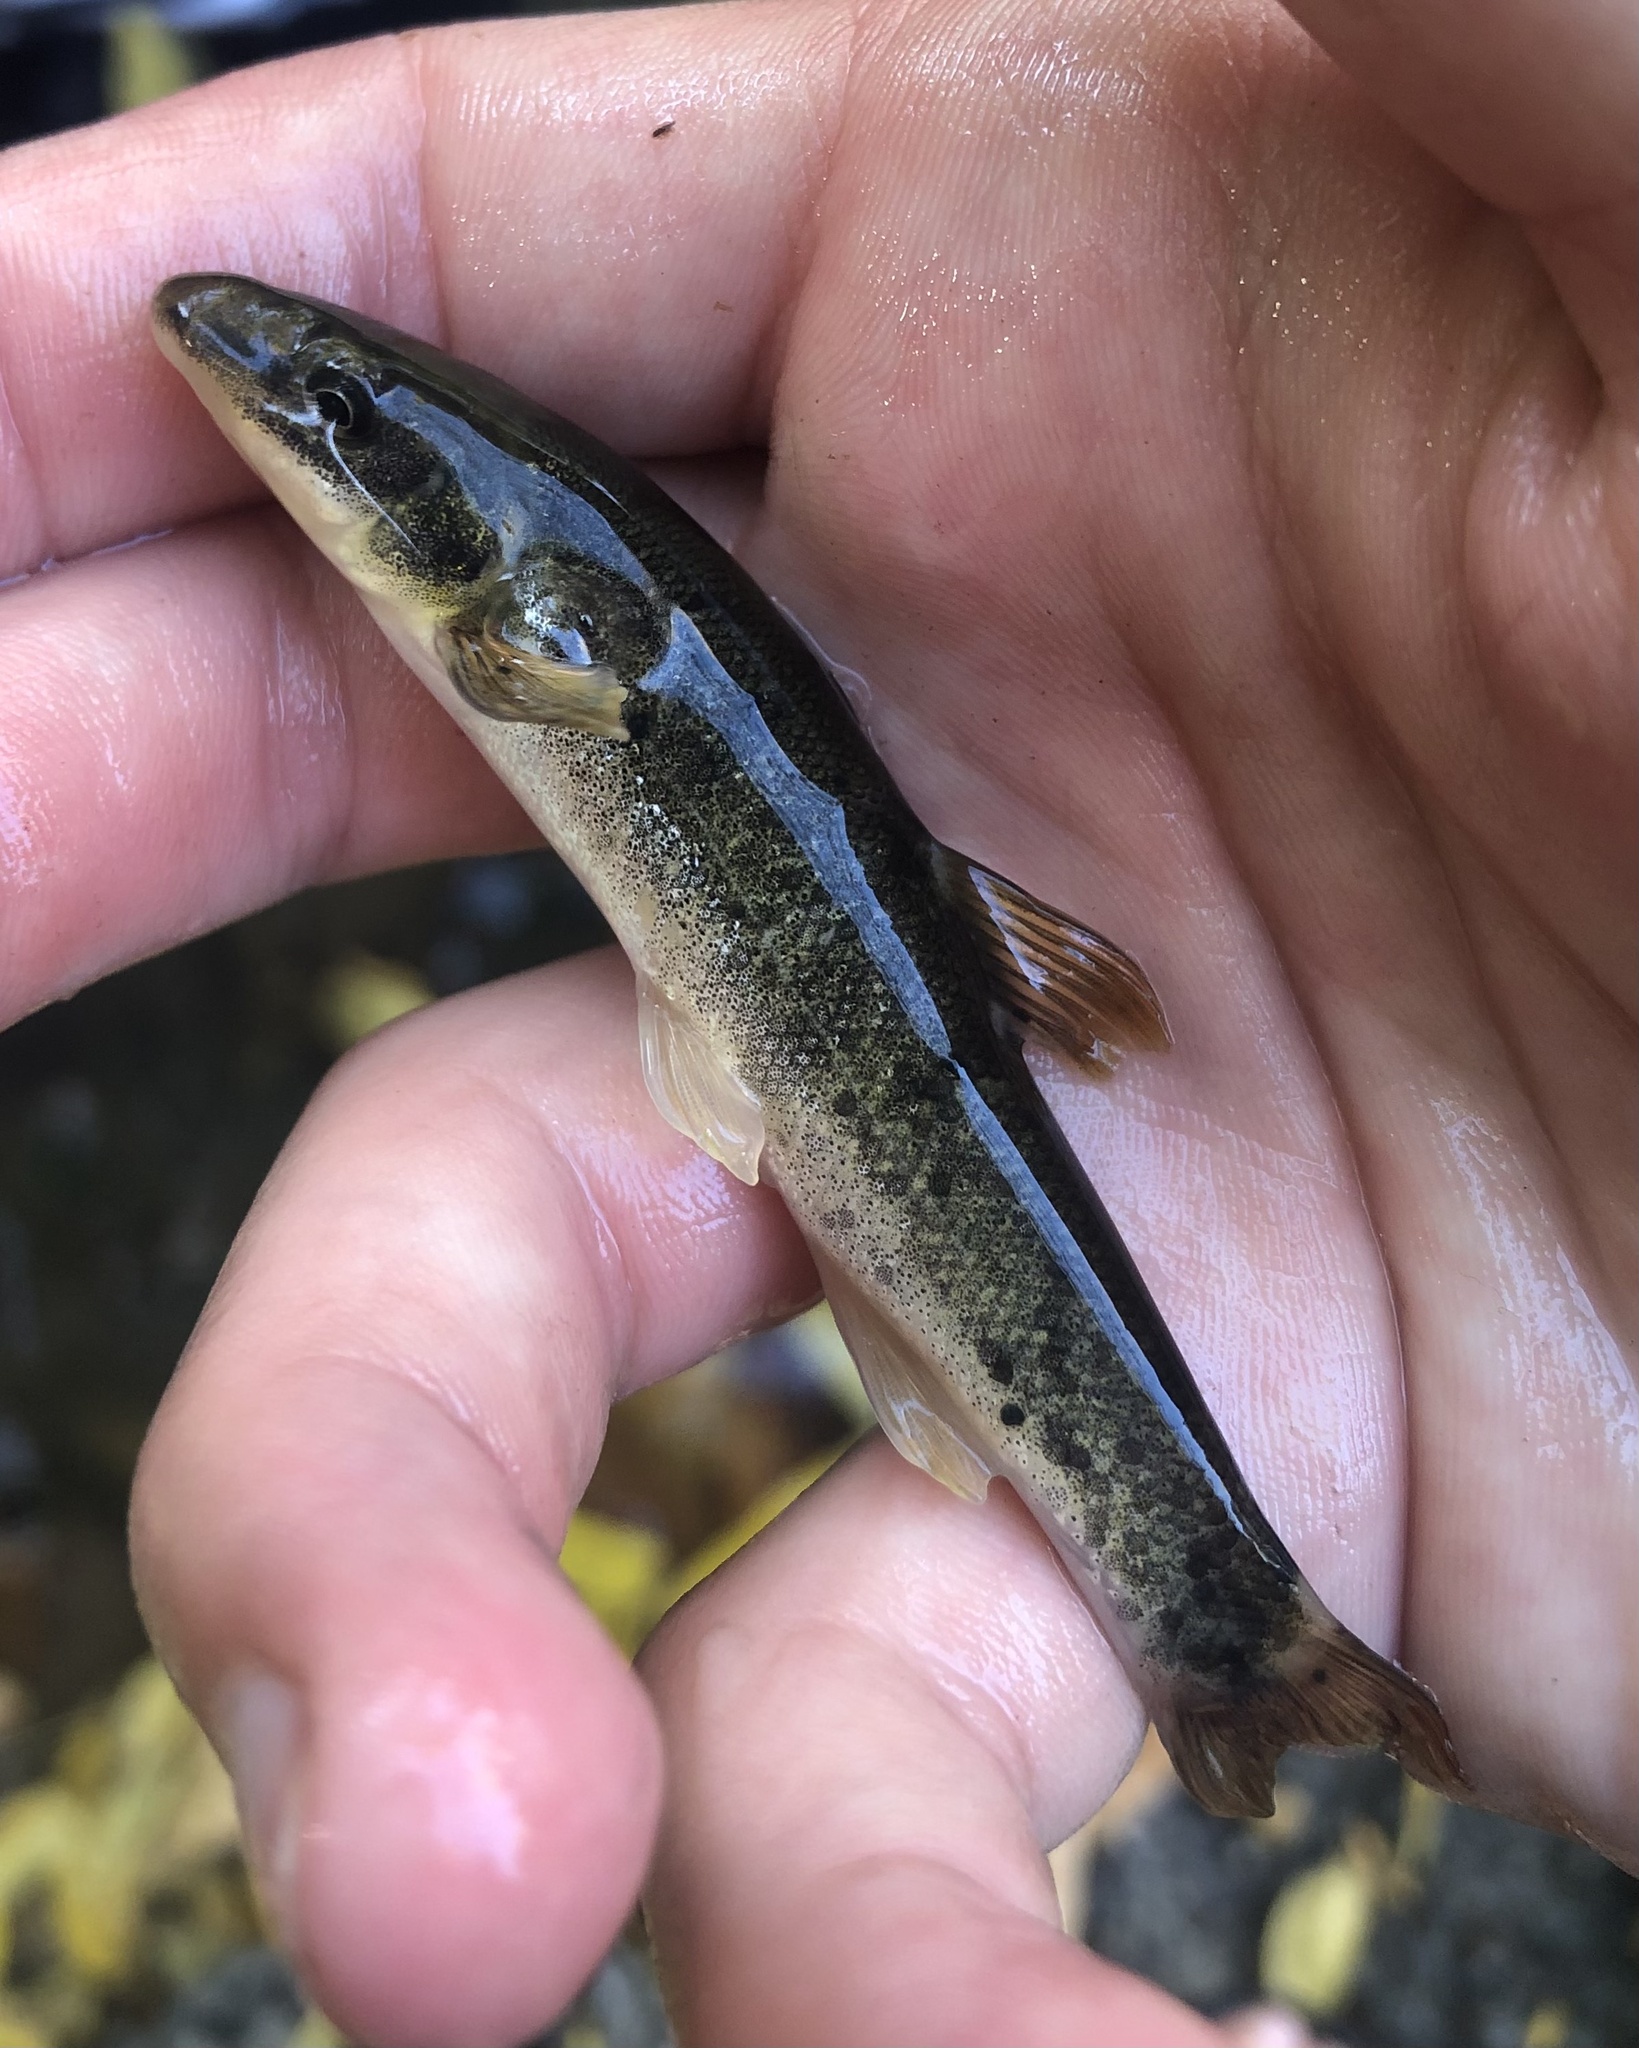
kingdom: Animalia
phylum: Chordata
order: Cypriniformes
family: Cyprinidae
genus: Rhinichthys
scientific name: Rhinichthys cataractae
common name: Longnose dace
